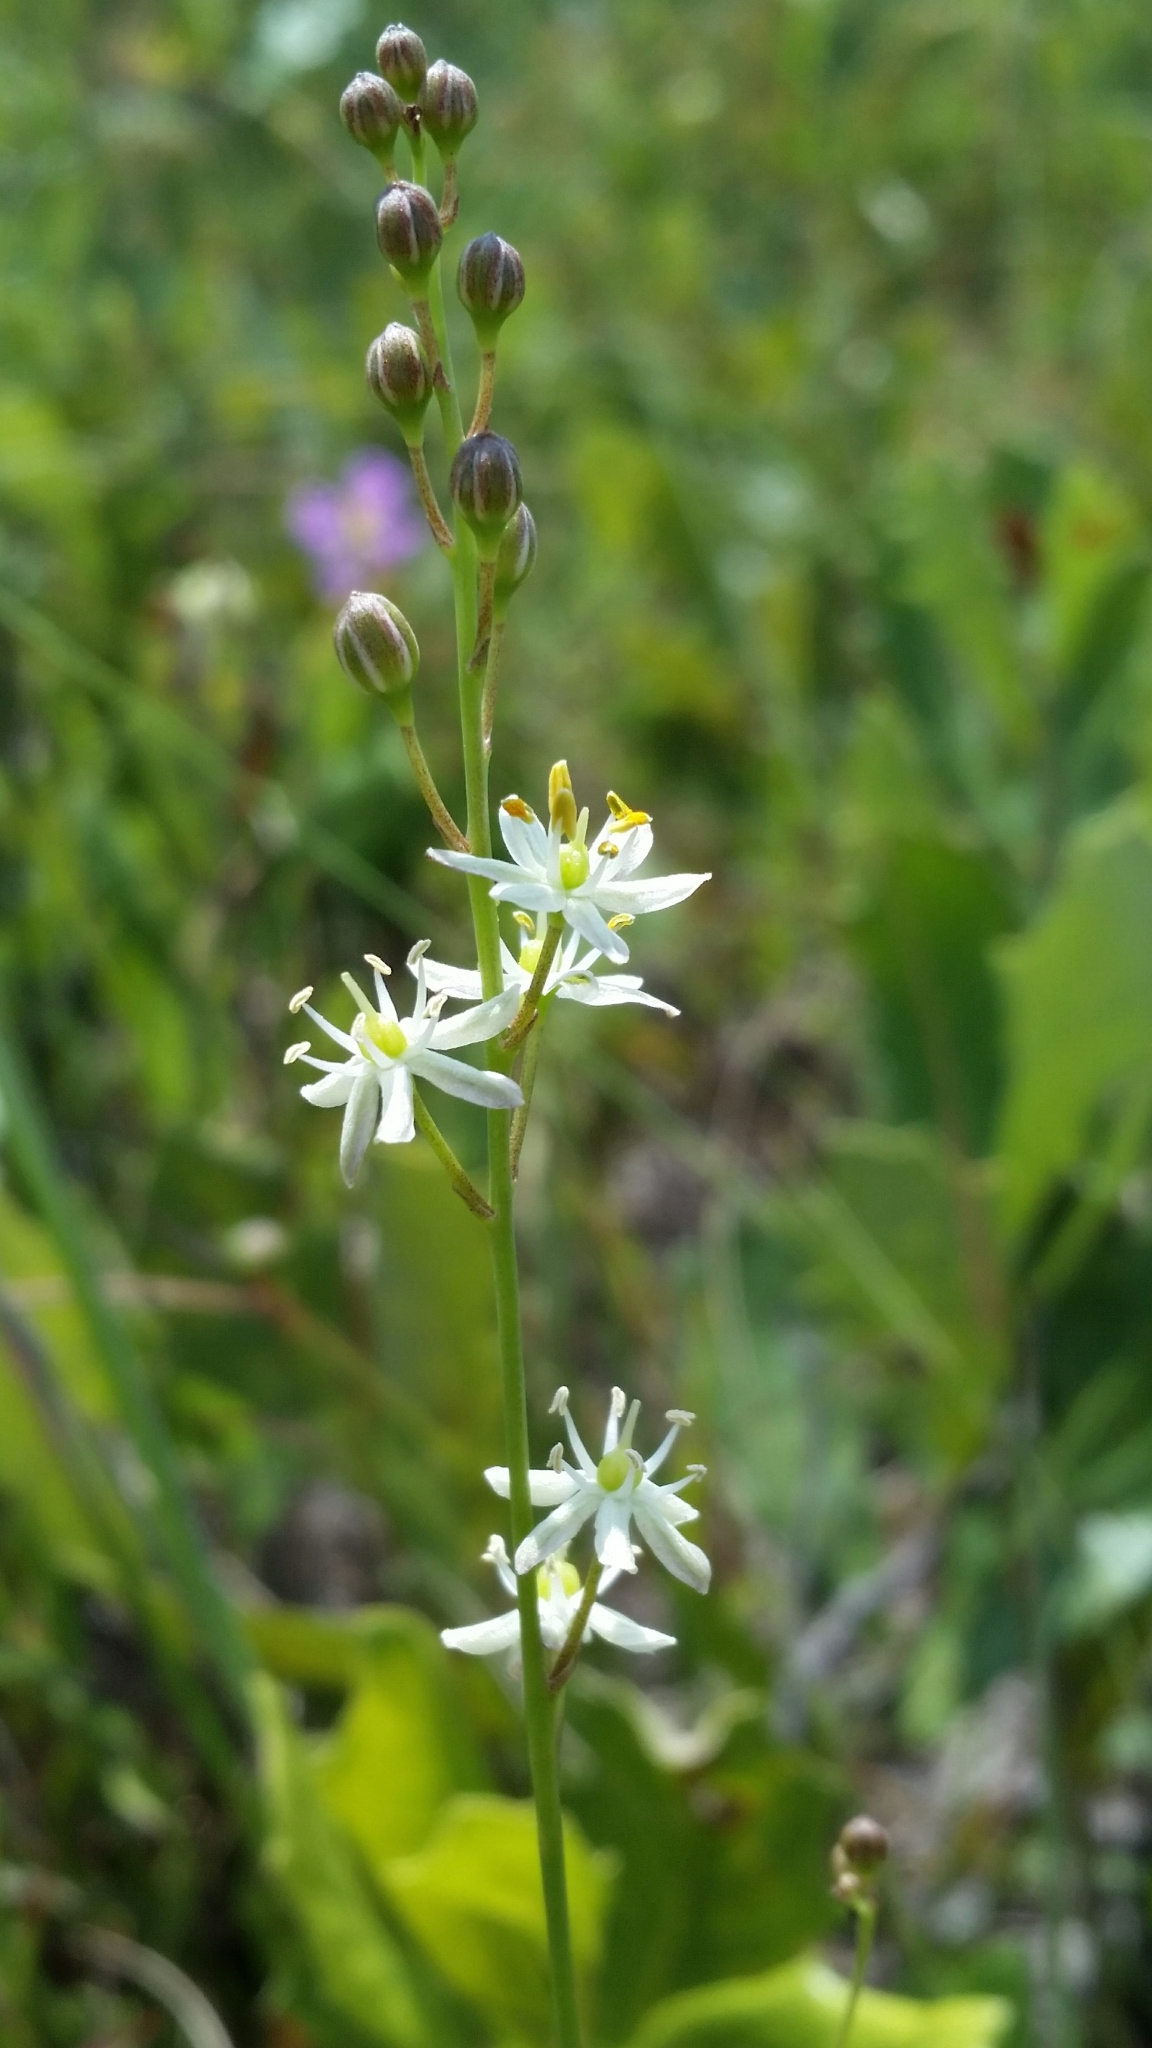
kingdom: Plantae
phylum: Tracheophyta
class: Liliopsida
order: Asparagales
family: Asparagaceae
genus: Schoenolirion
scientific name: Schoenolirion albiflorum
